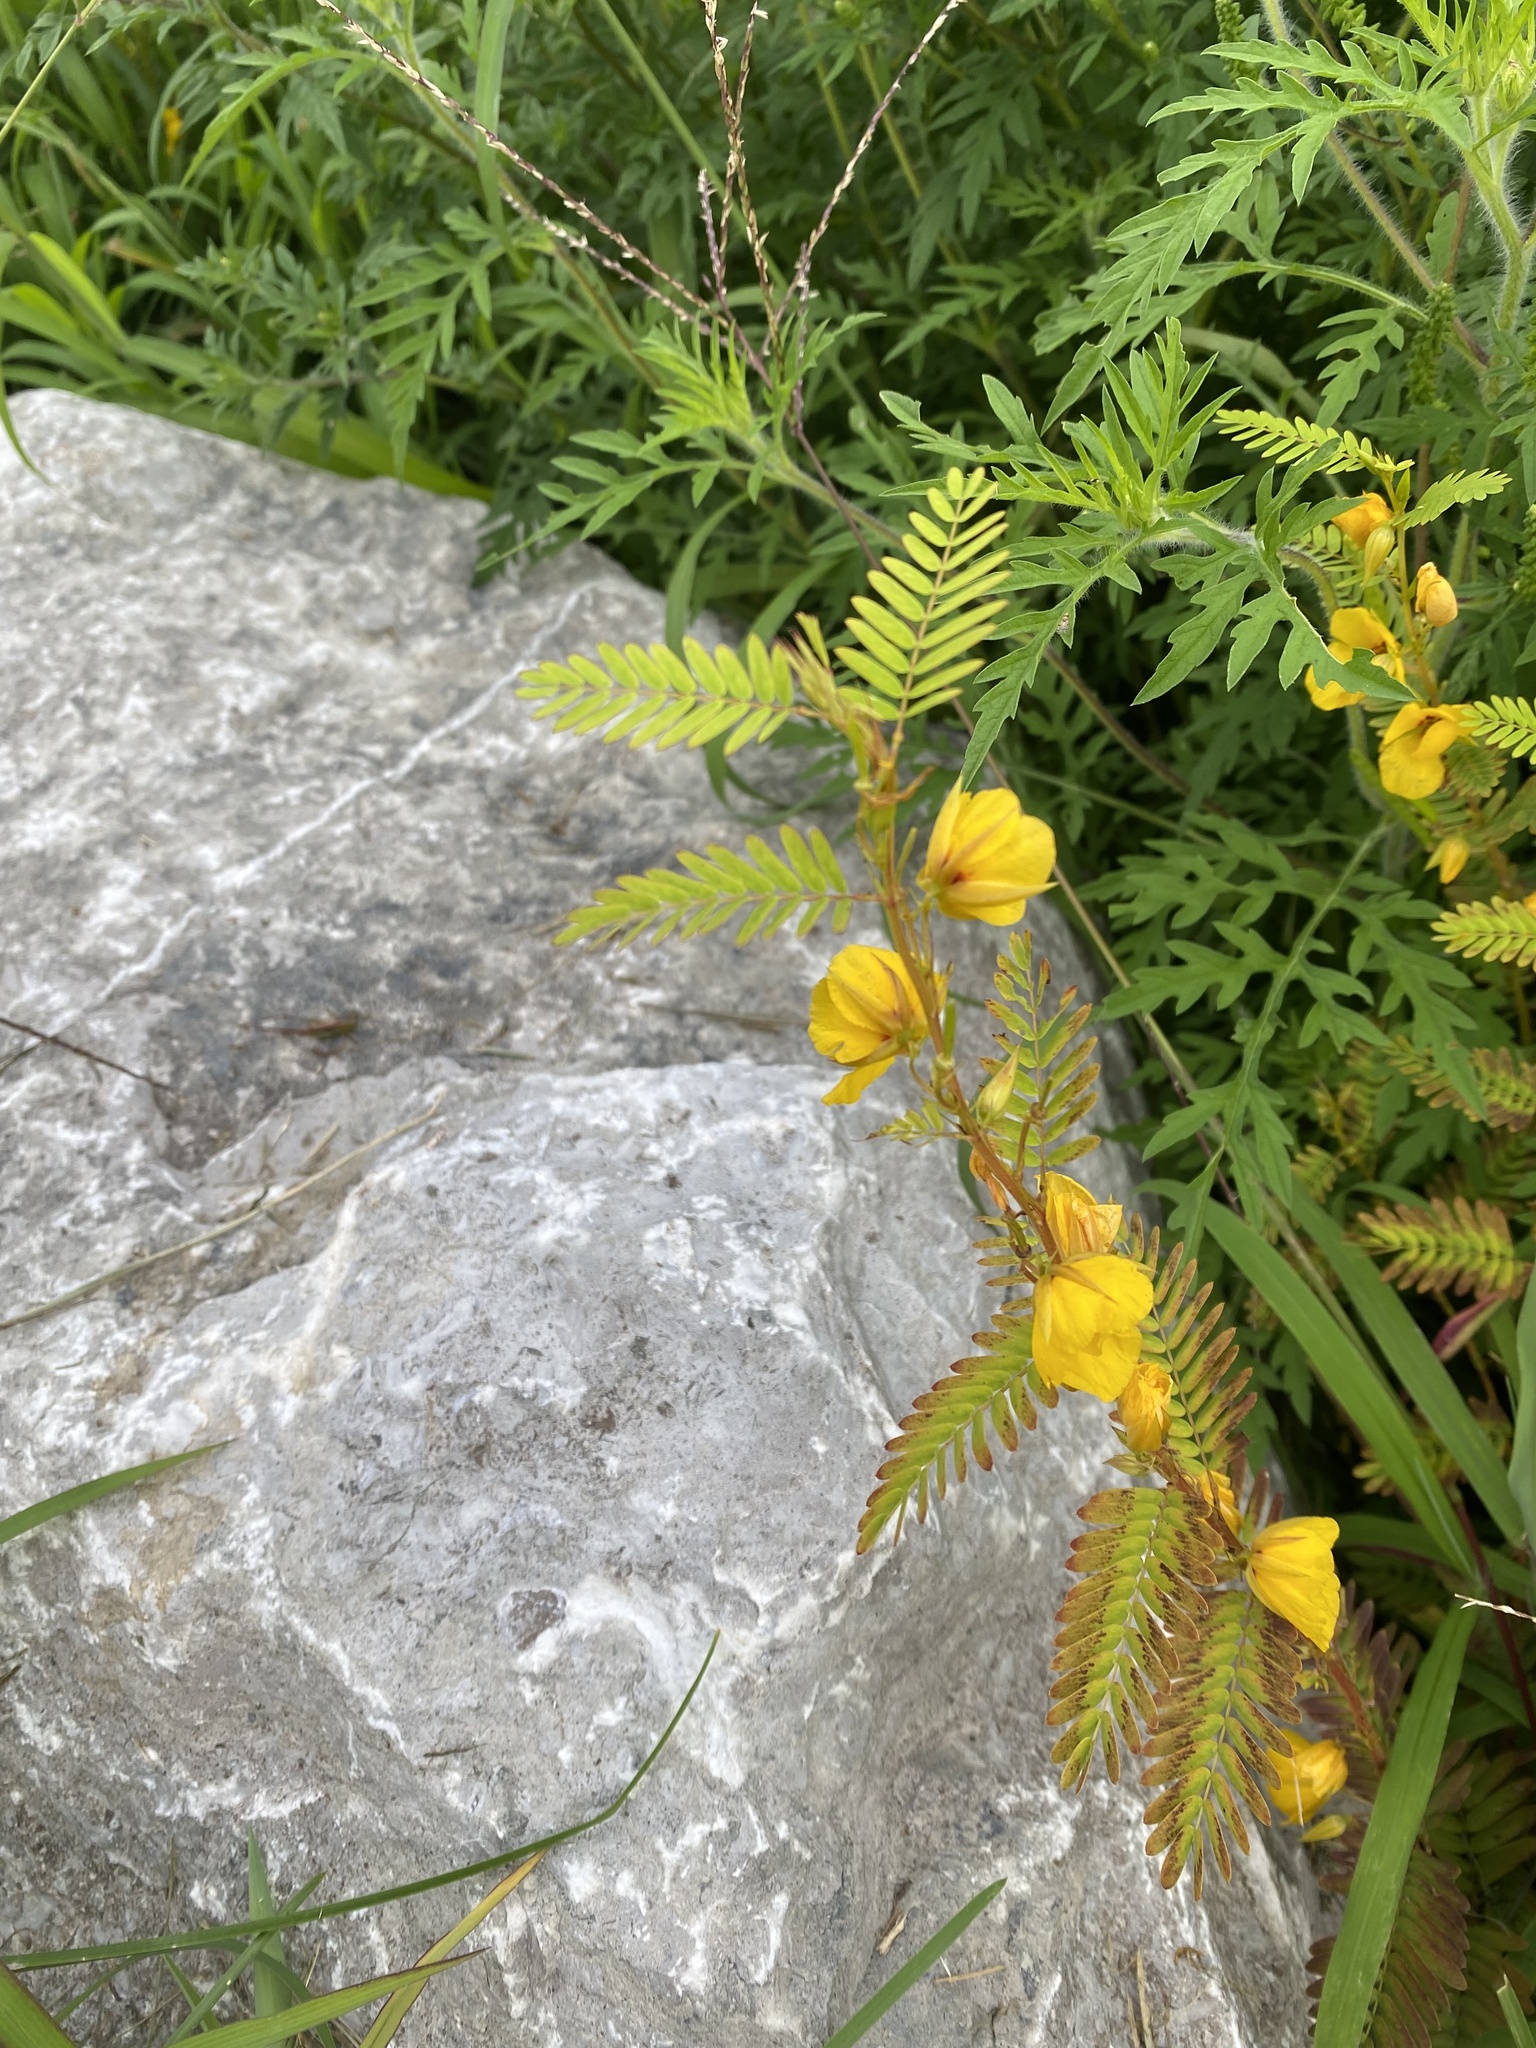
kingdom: Plantae
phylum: Tracheophyta
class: Magnoliopsida
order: Fabales
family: Fabaceae
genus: Chamaecrista
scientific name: Chamaecrista fasciculata
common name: Golden cassia
